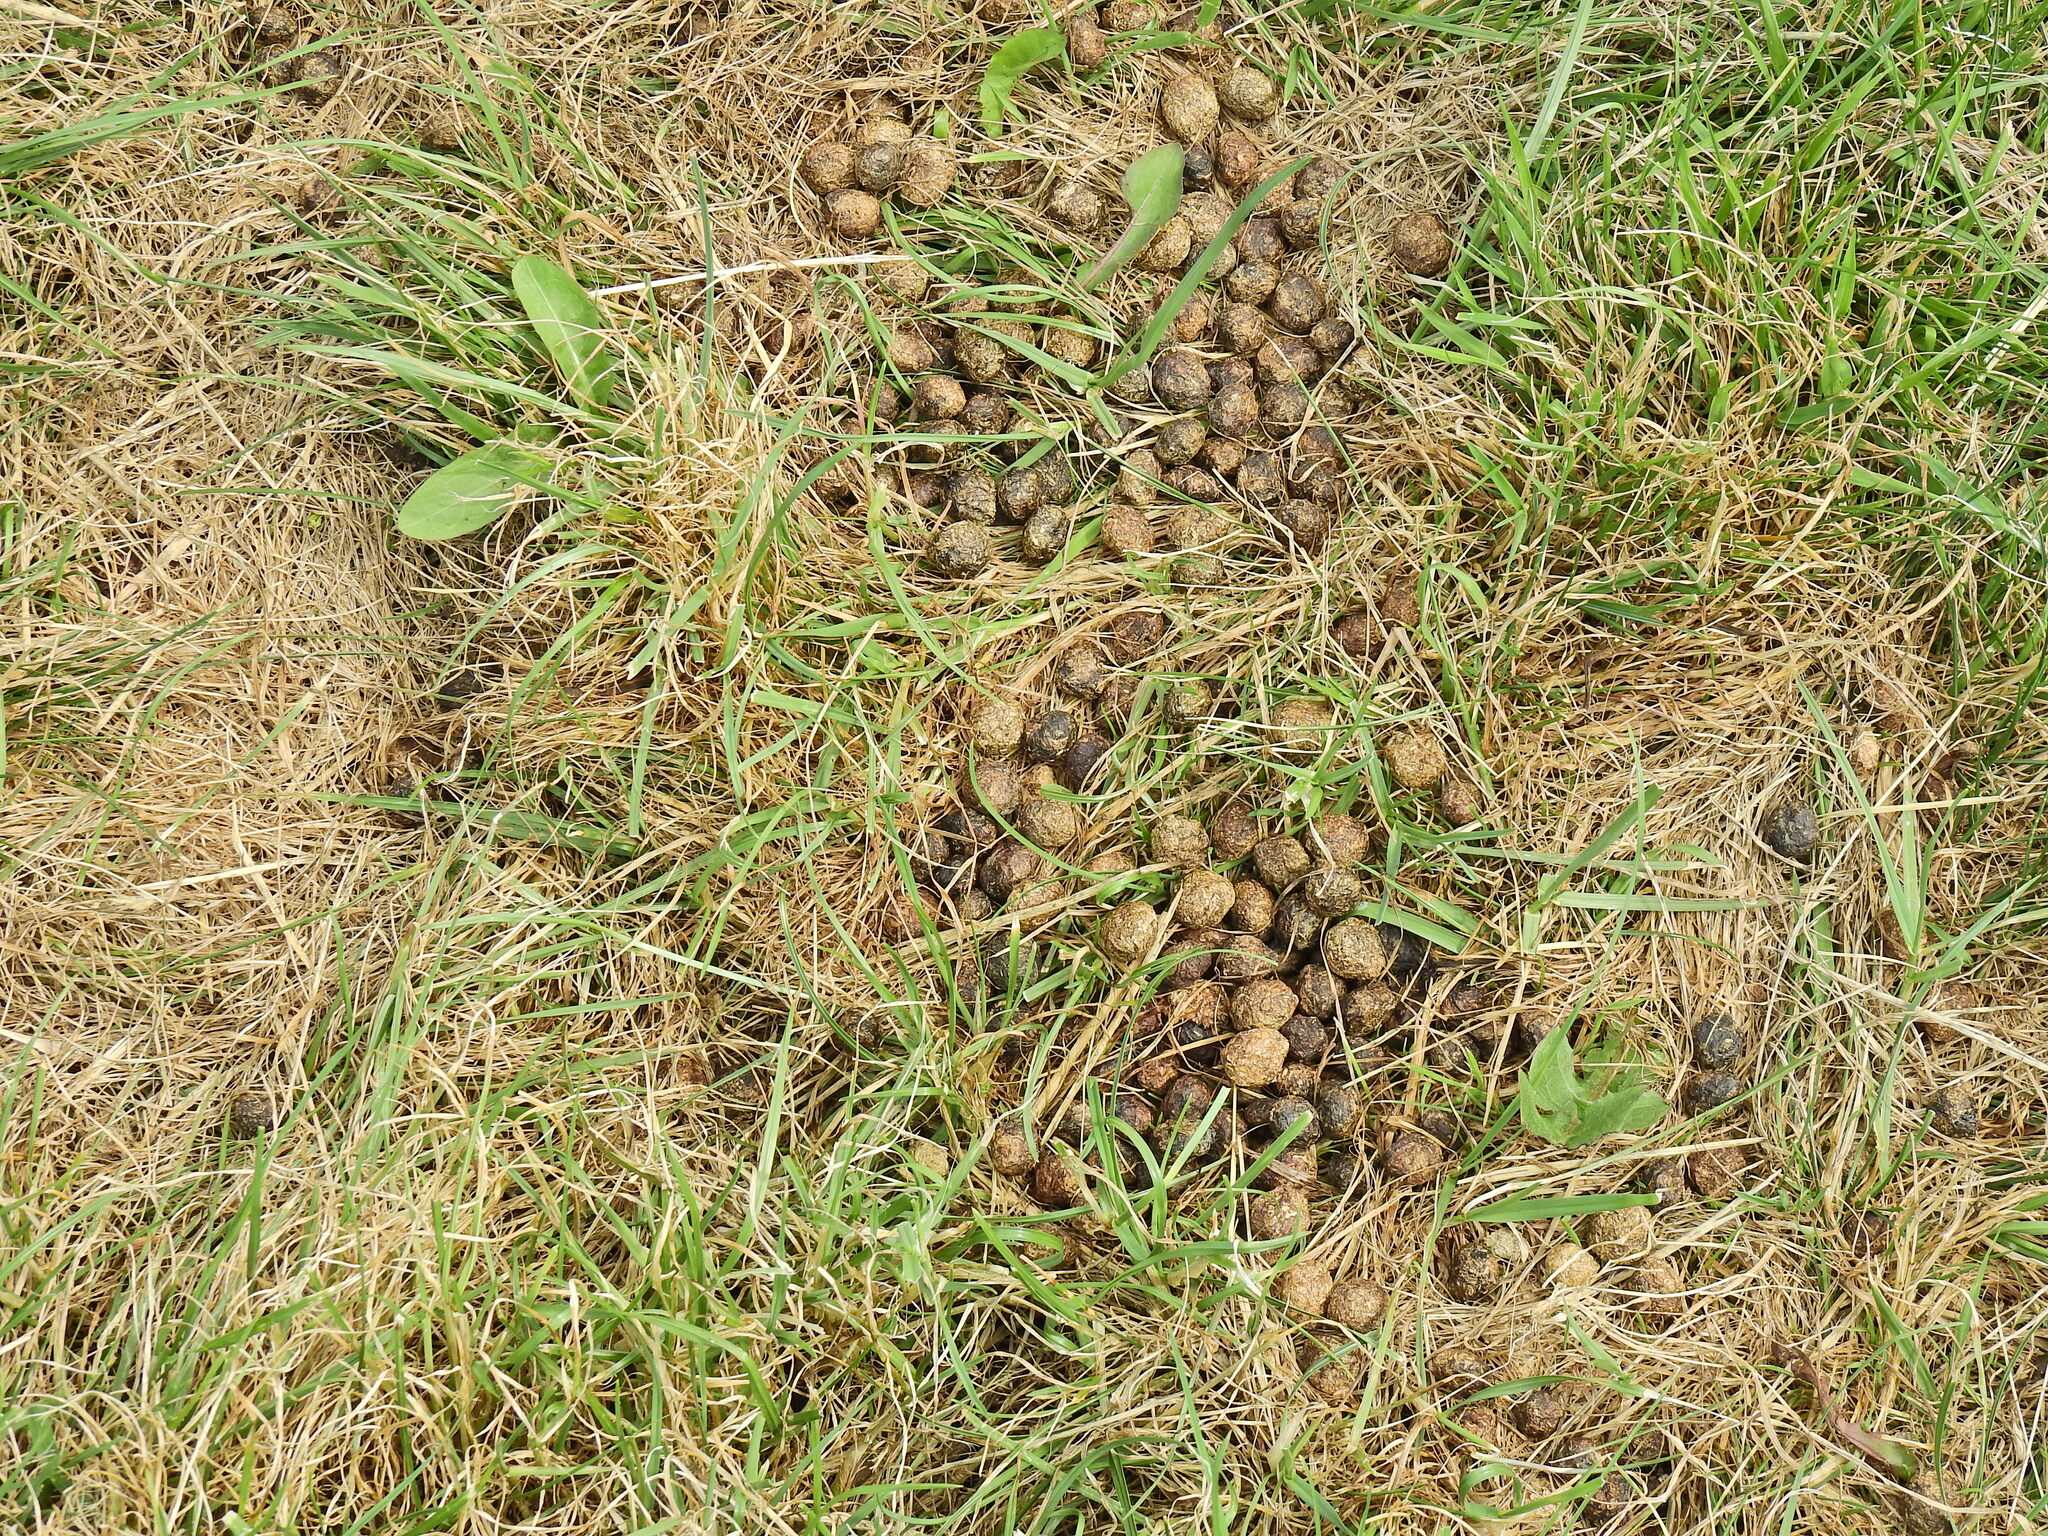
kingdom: Animalia
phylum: Chordata
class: Mammalia
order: Lagomorpha
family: Leporidae
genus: Oryctolagus
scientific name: Oryctolagus cuniculus
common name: European rabbit
